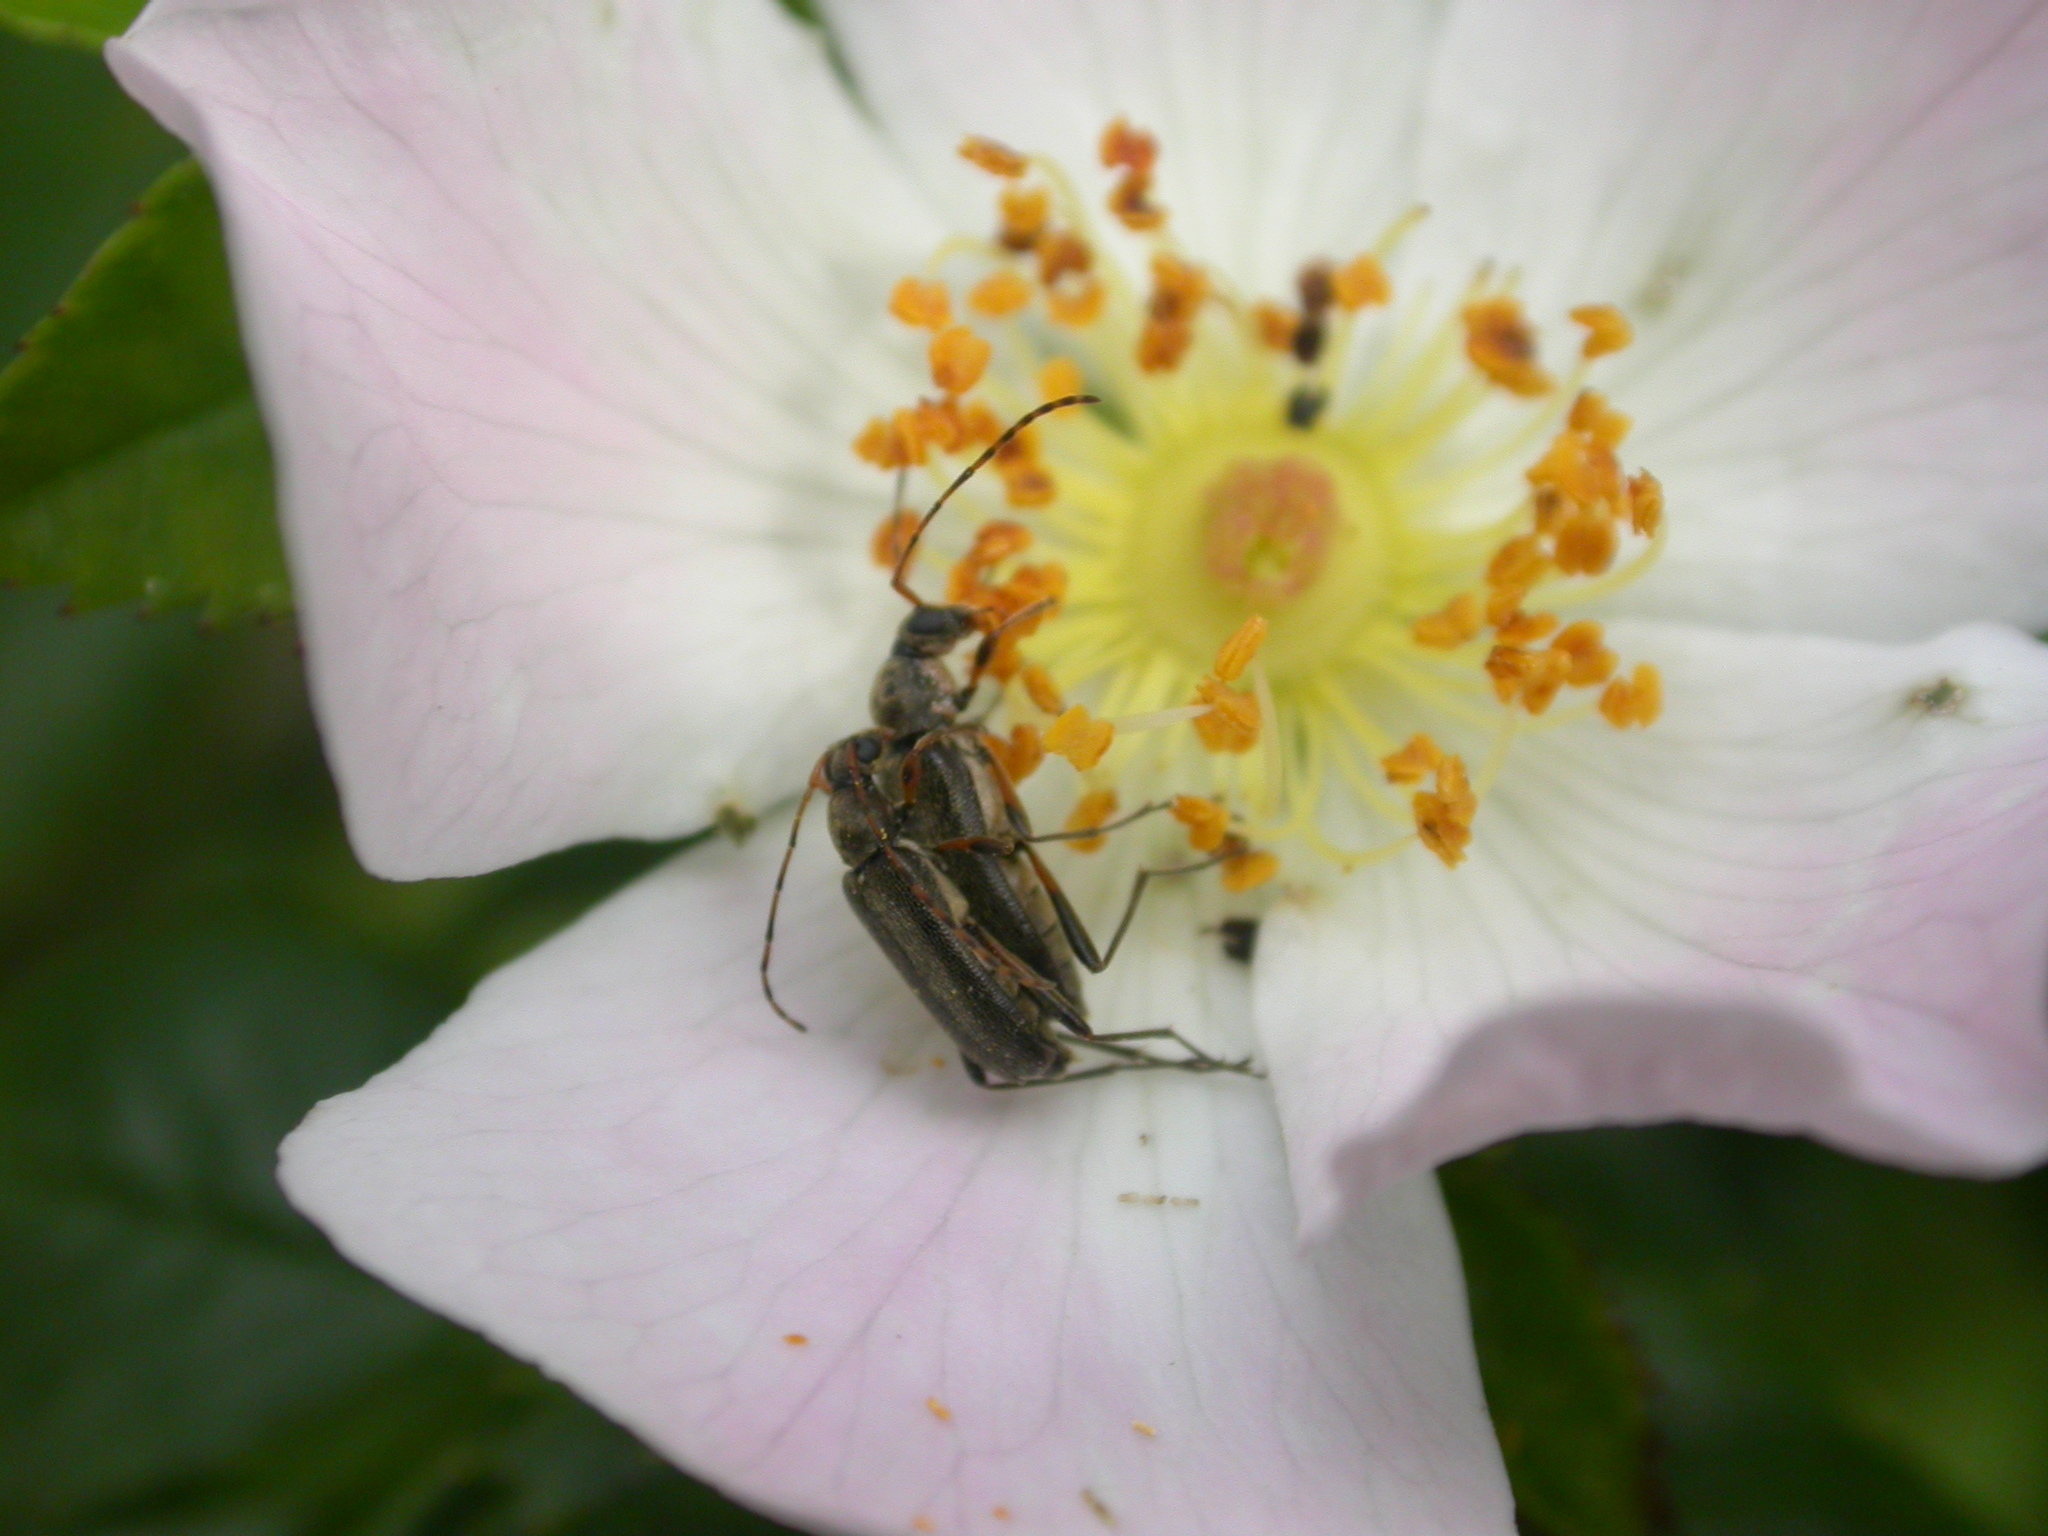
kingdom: Animalia
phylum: Arthropoda
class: Insecta
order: Coleoptera
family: Cerambycidae
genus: Grammoptera
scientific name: Grammoptera ruficornis
